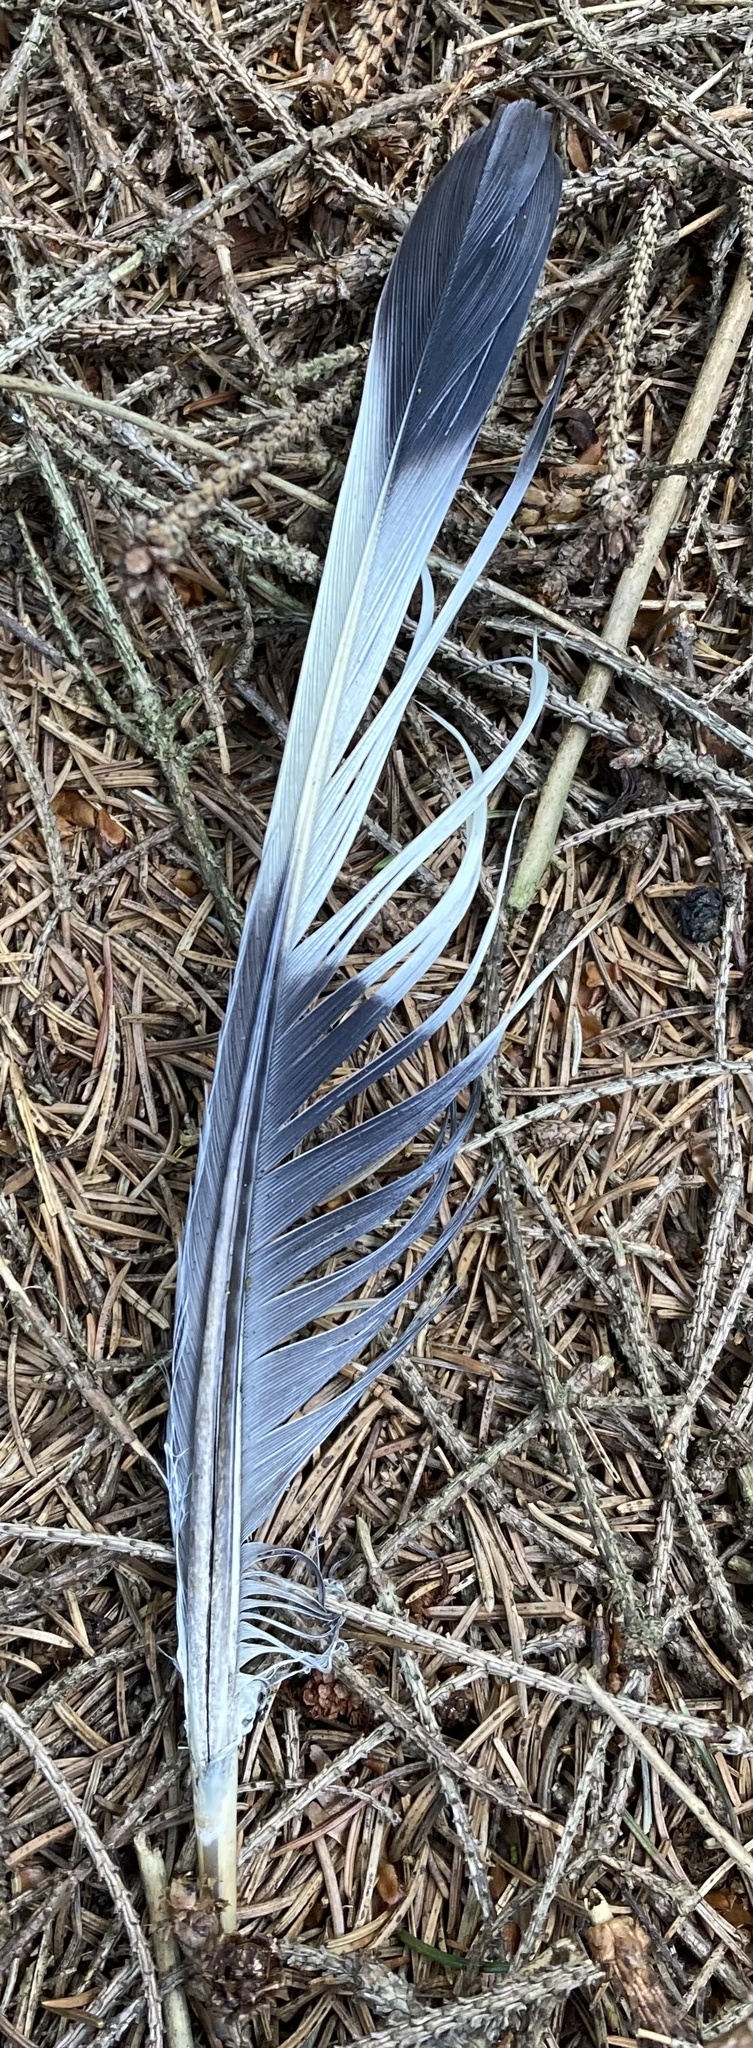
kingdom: Animalia
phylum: Chordata
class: Aves
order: Columbiformes
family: Columbidae
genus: Columba
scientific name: Columba palumbus
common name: Common wood pigeon
